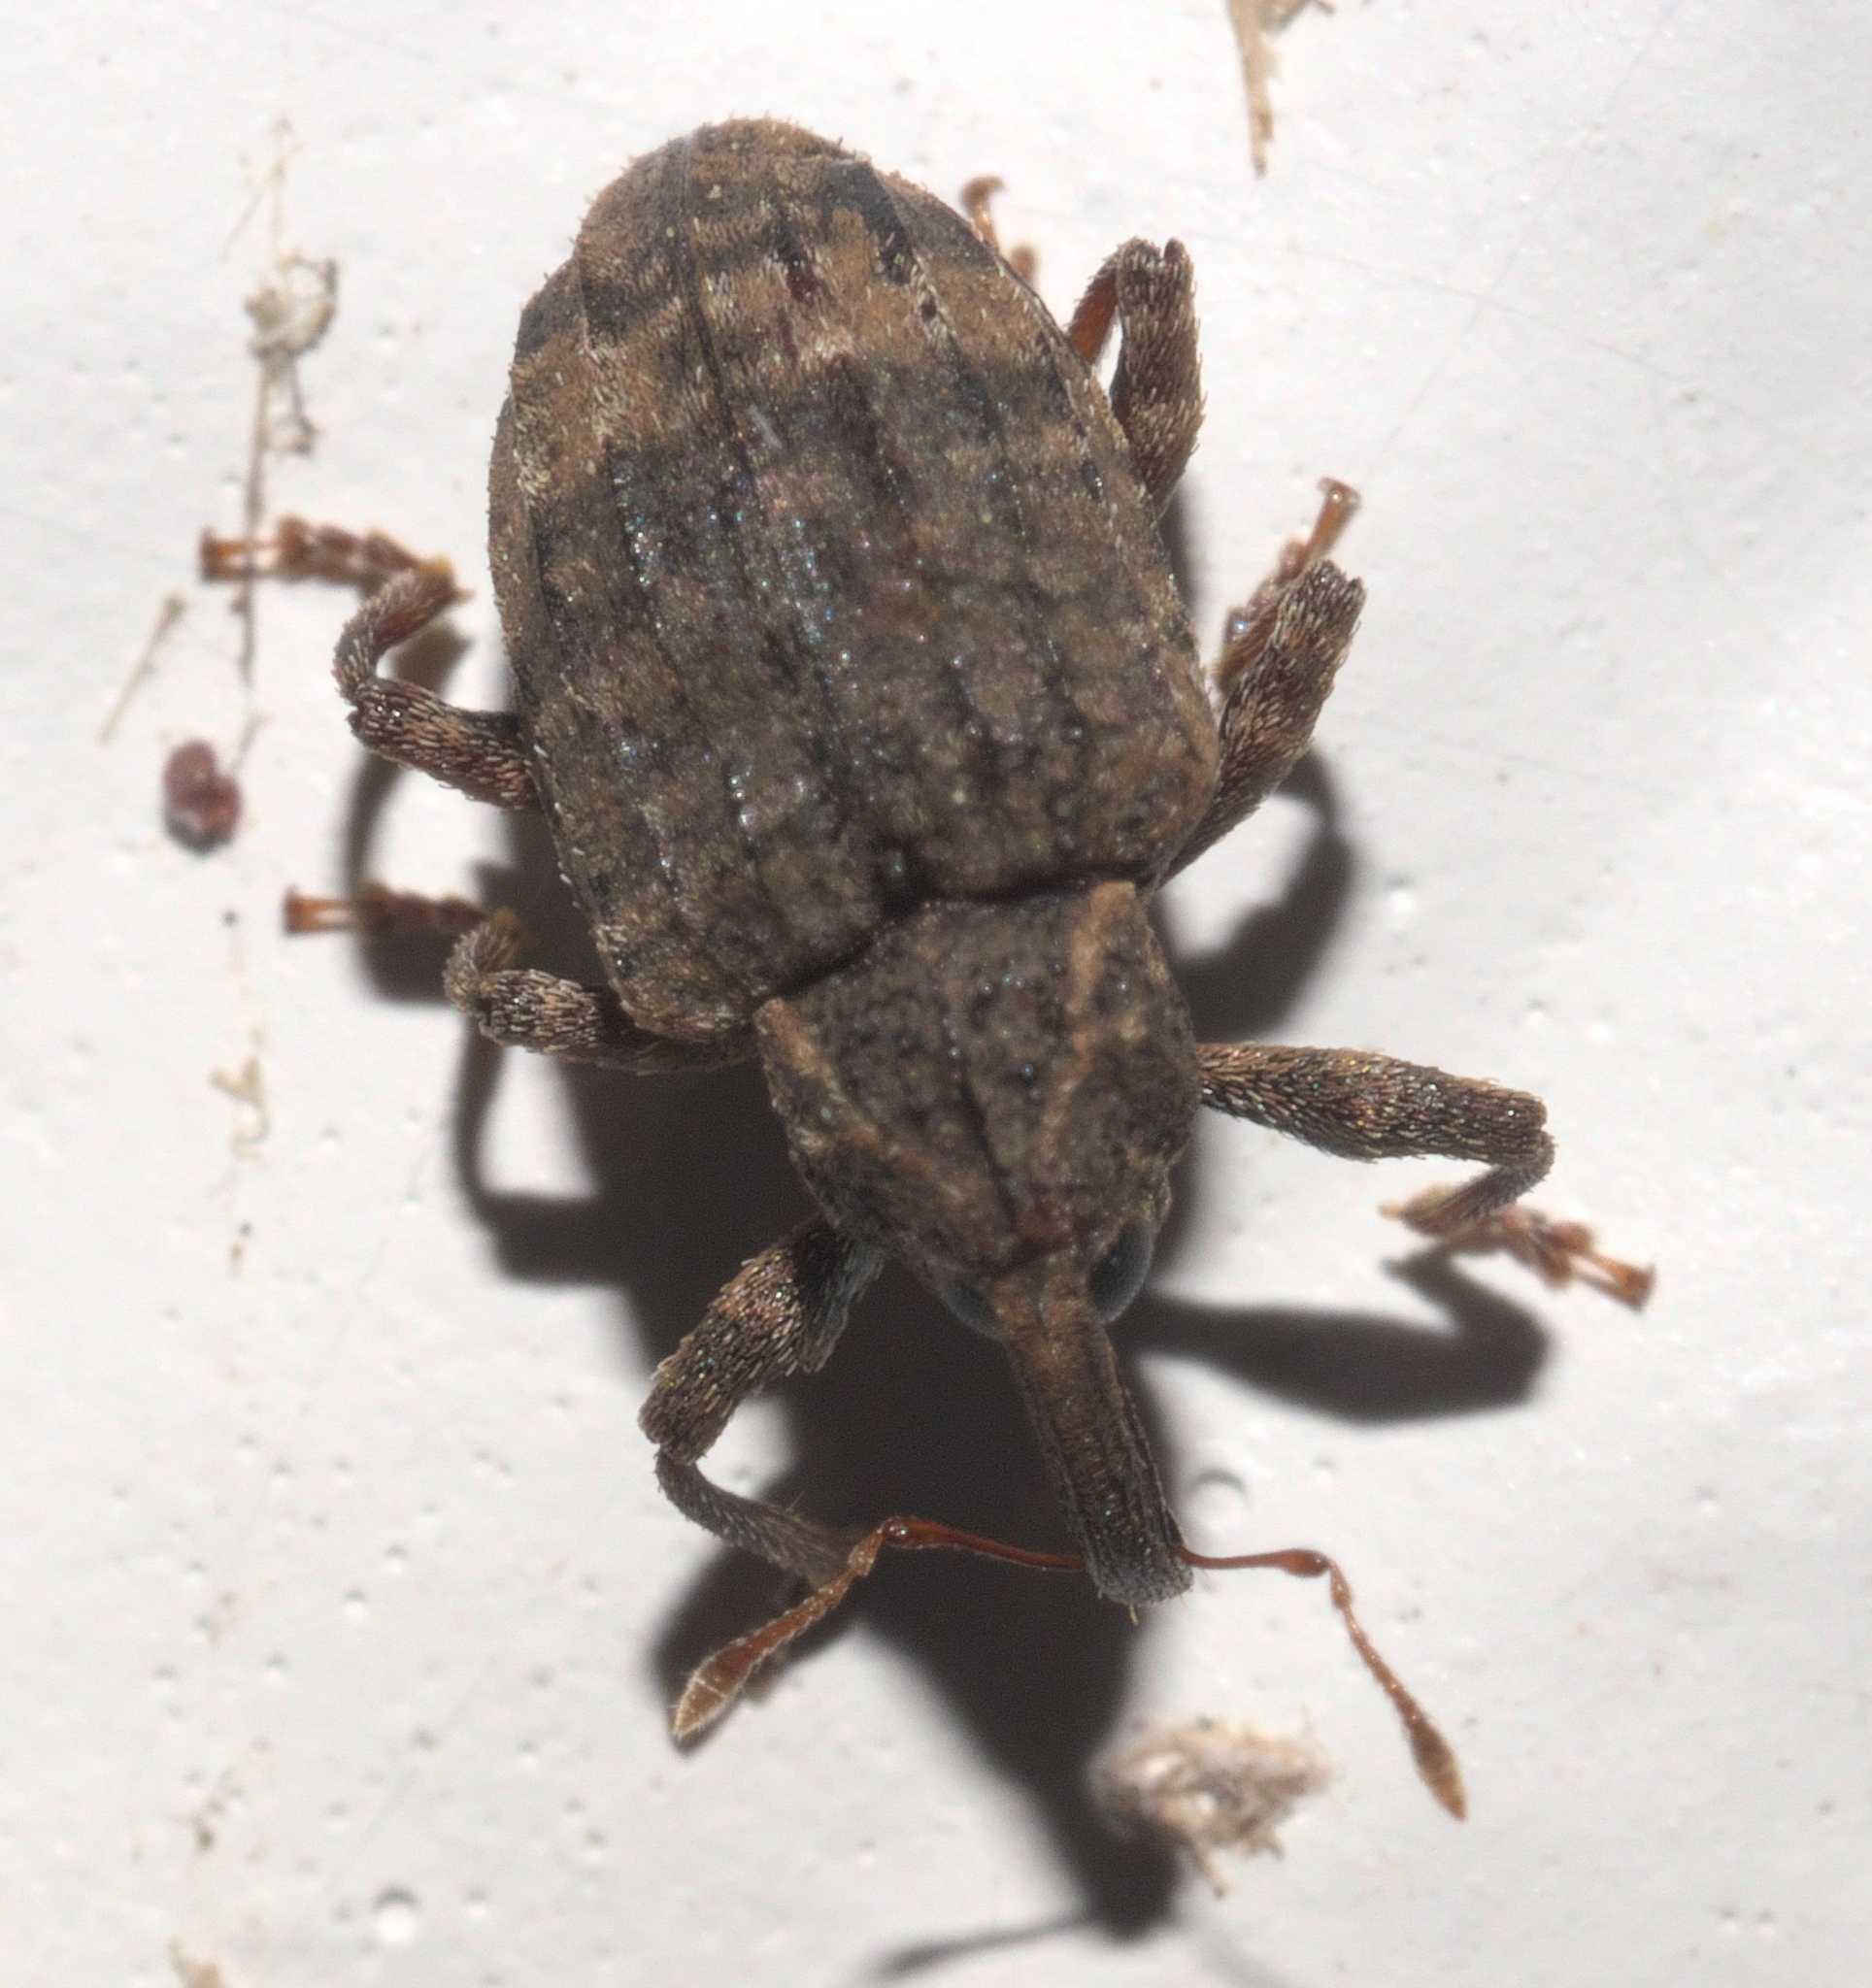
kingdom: Animalia
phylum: Arthropoda
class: Insecta
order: Coleoptera
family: Curculionidae
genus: Conotrachelus
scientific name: Conotrachelus seniculus
